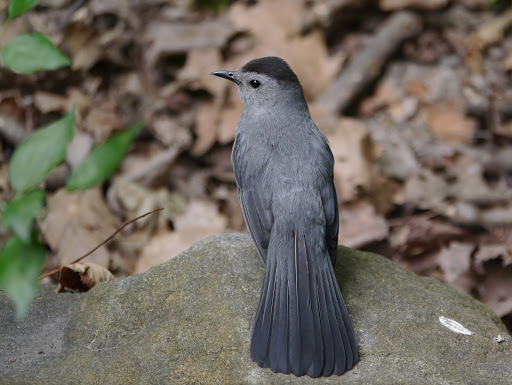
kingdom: Animalia
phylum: Chordata
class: Aves
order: Passeriformes
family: Mimidae
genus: Dumetella
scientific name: Dumetella carolinensis
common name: Gray catbird
